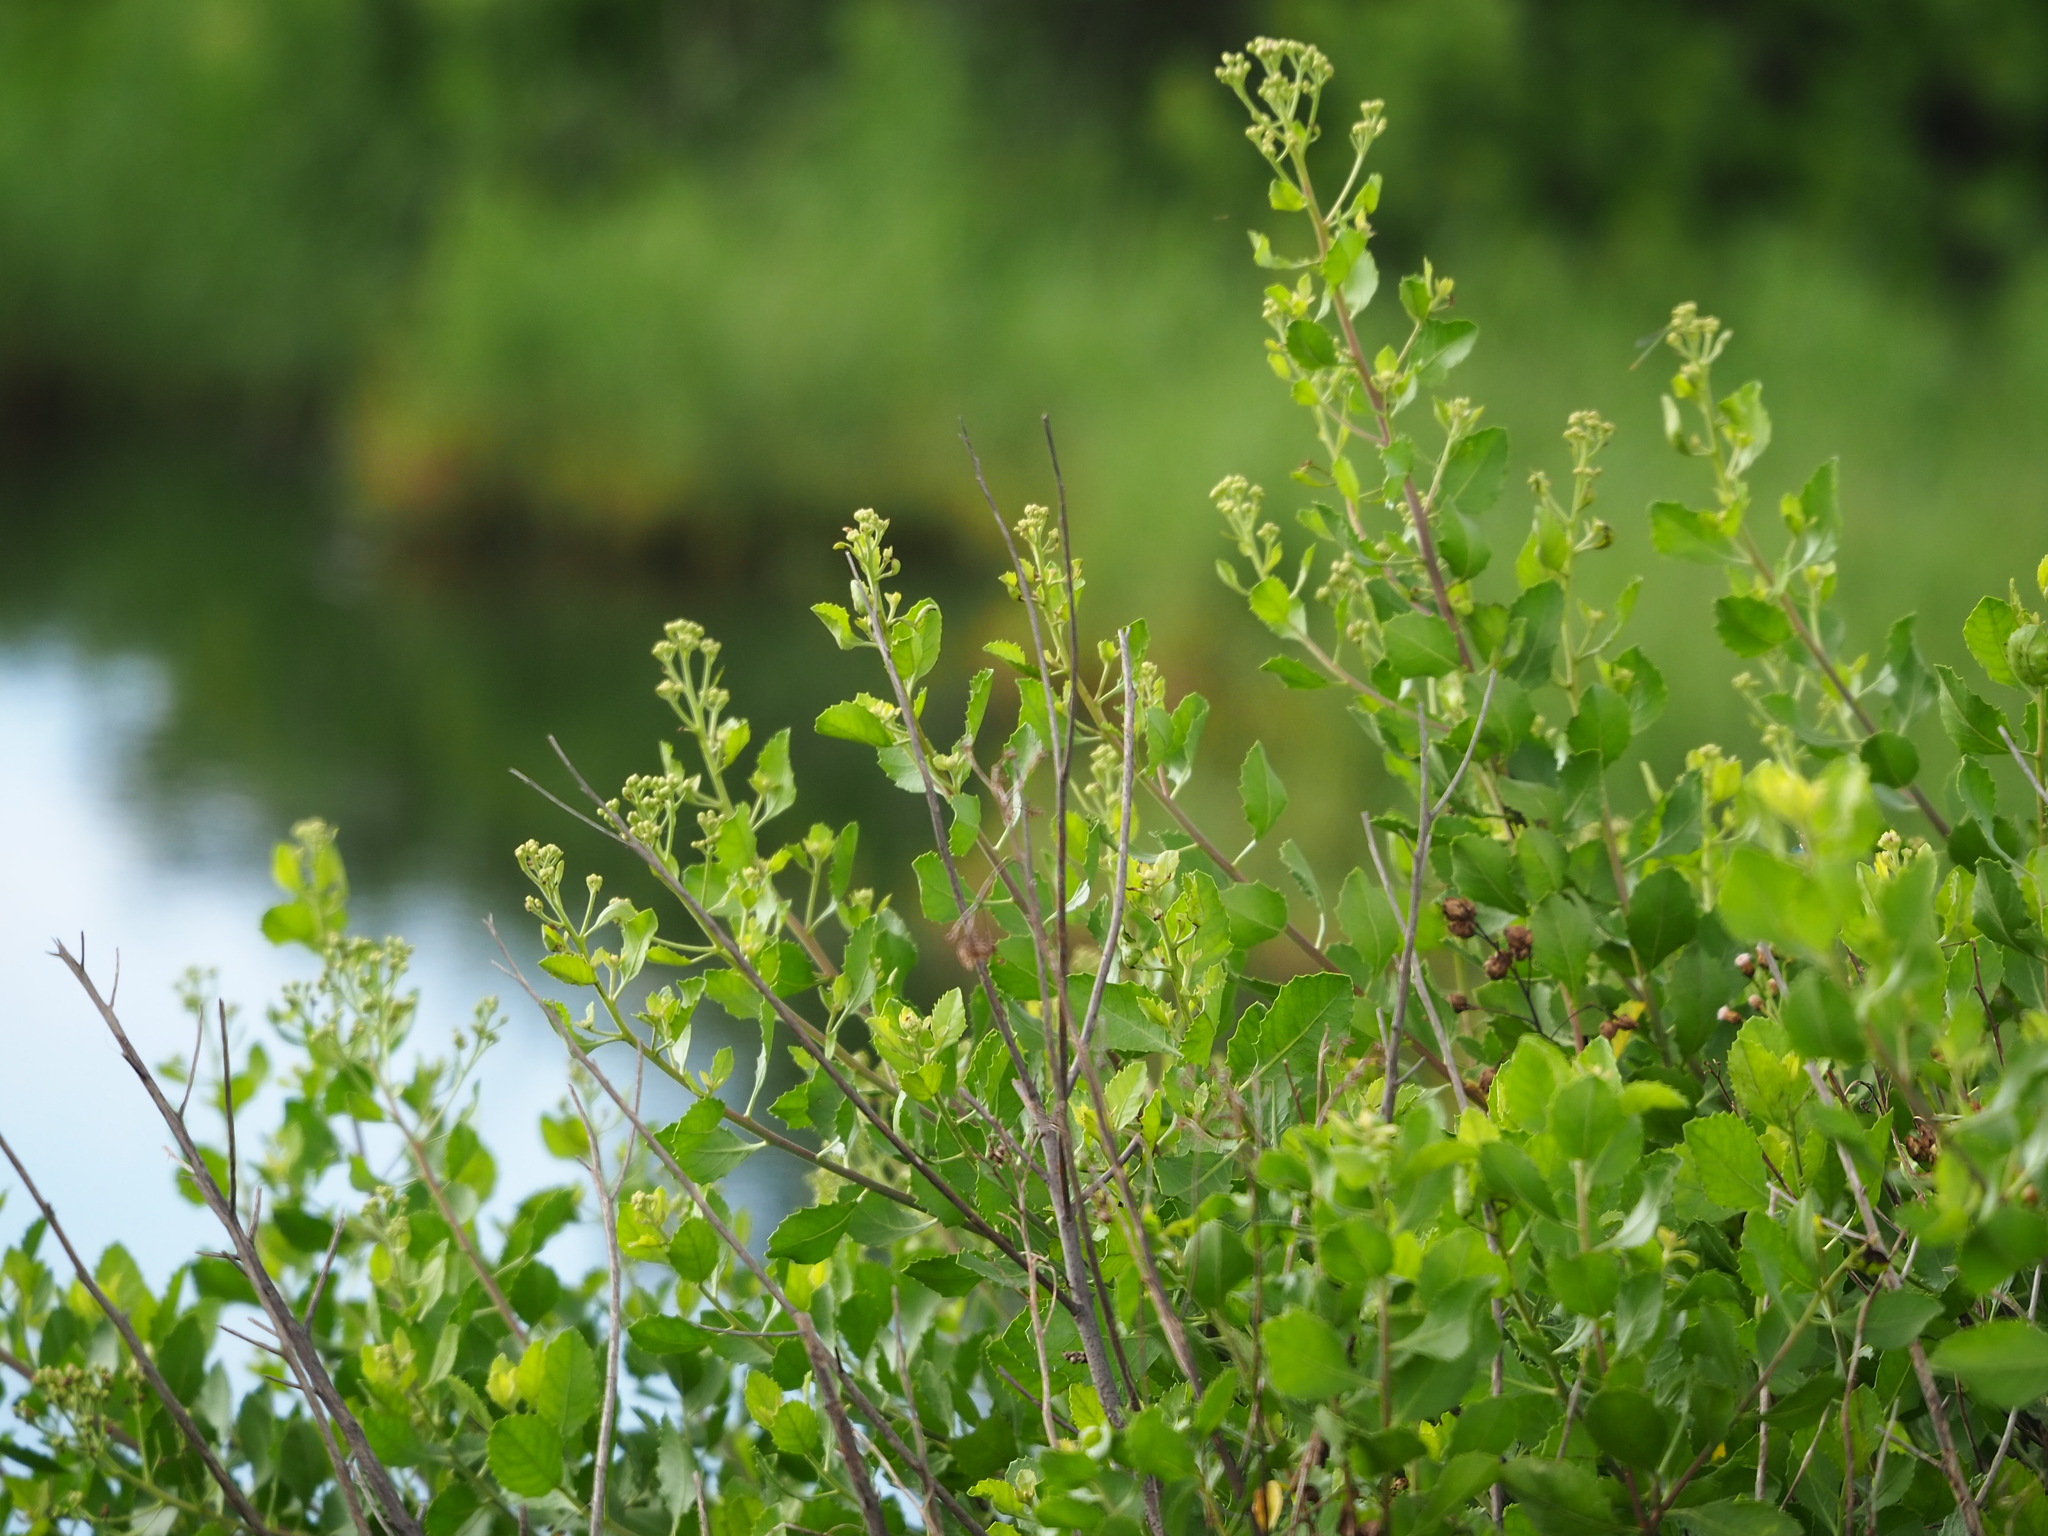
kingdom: Plantae
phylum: Tracheophyta
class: Magnoliopsida
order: Asterales
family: Asteraceae
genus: Pluchea
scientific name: Pluchea indica
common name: Indian fleabane
